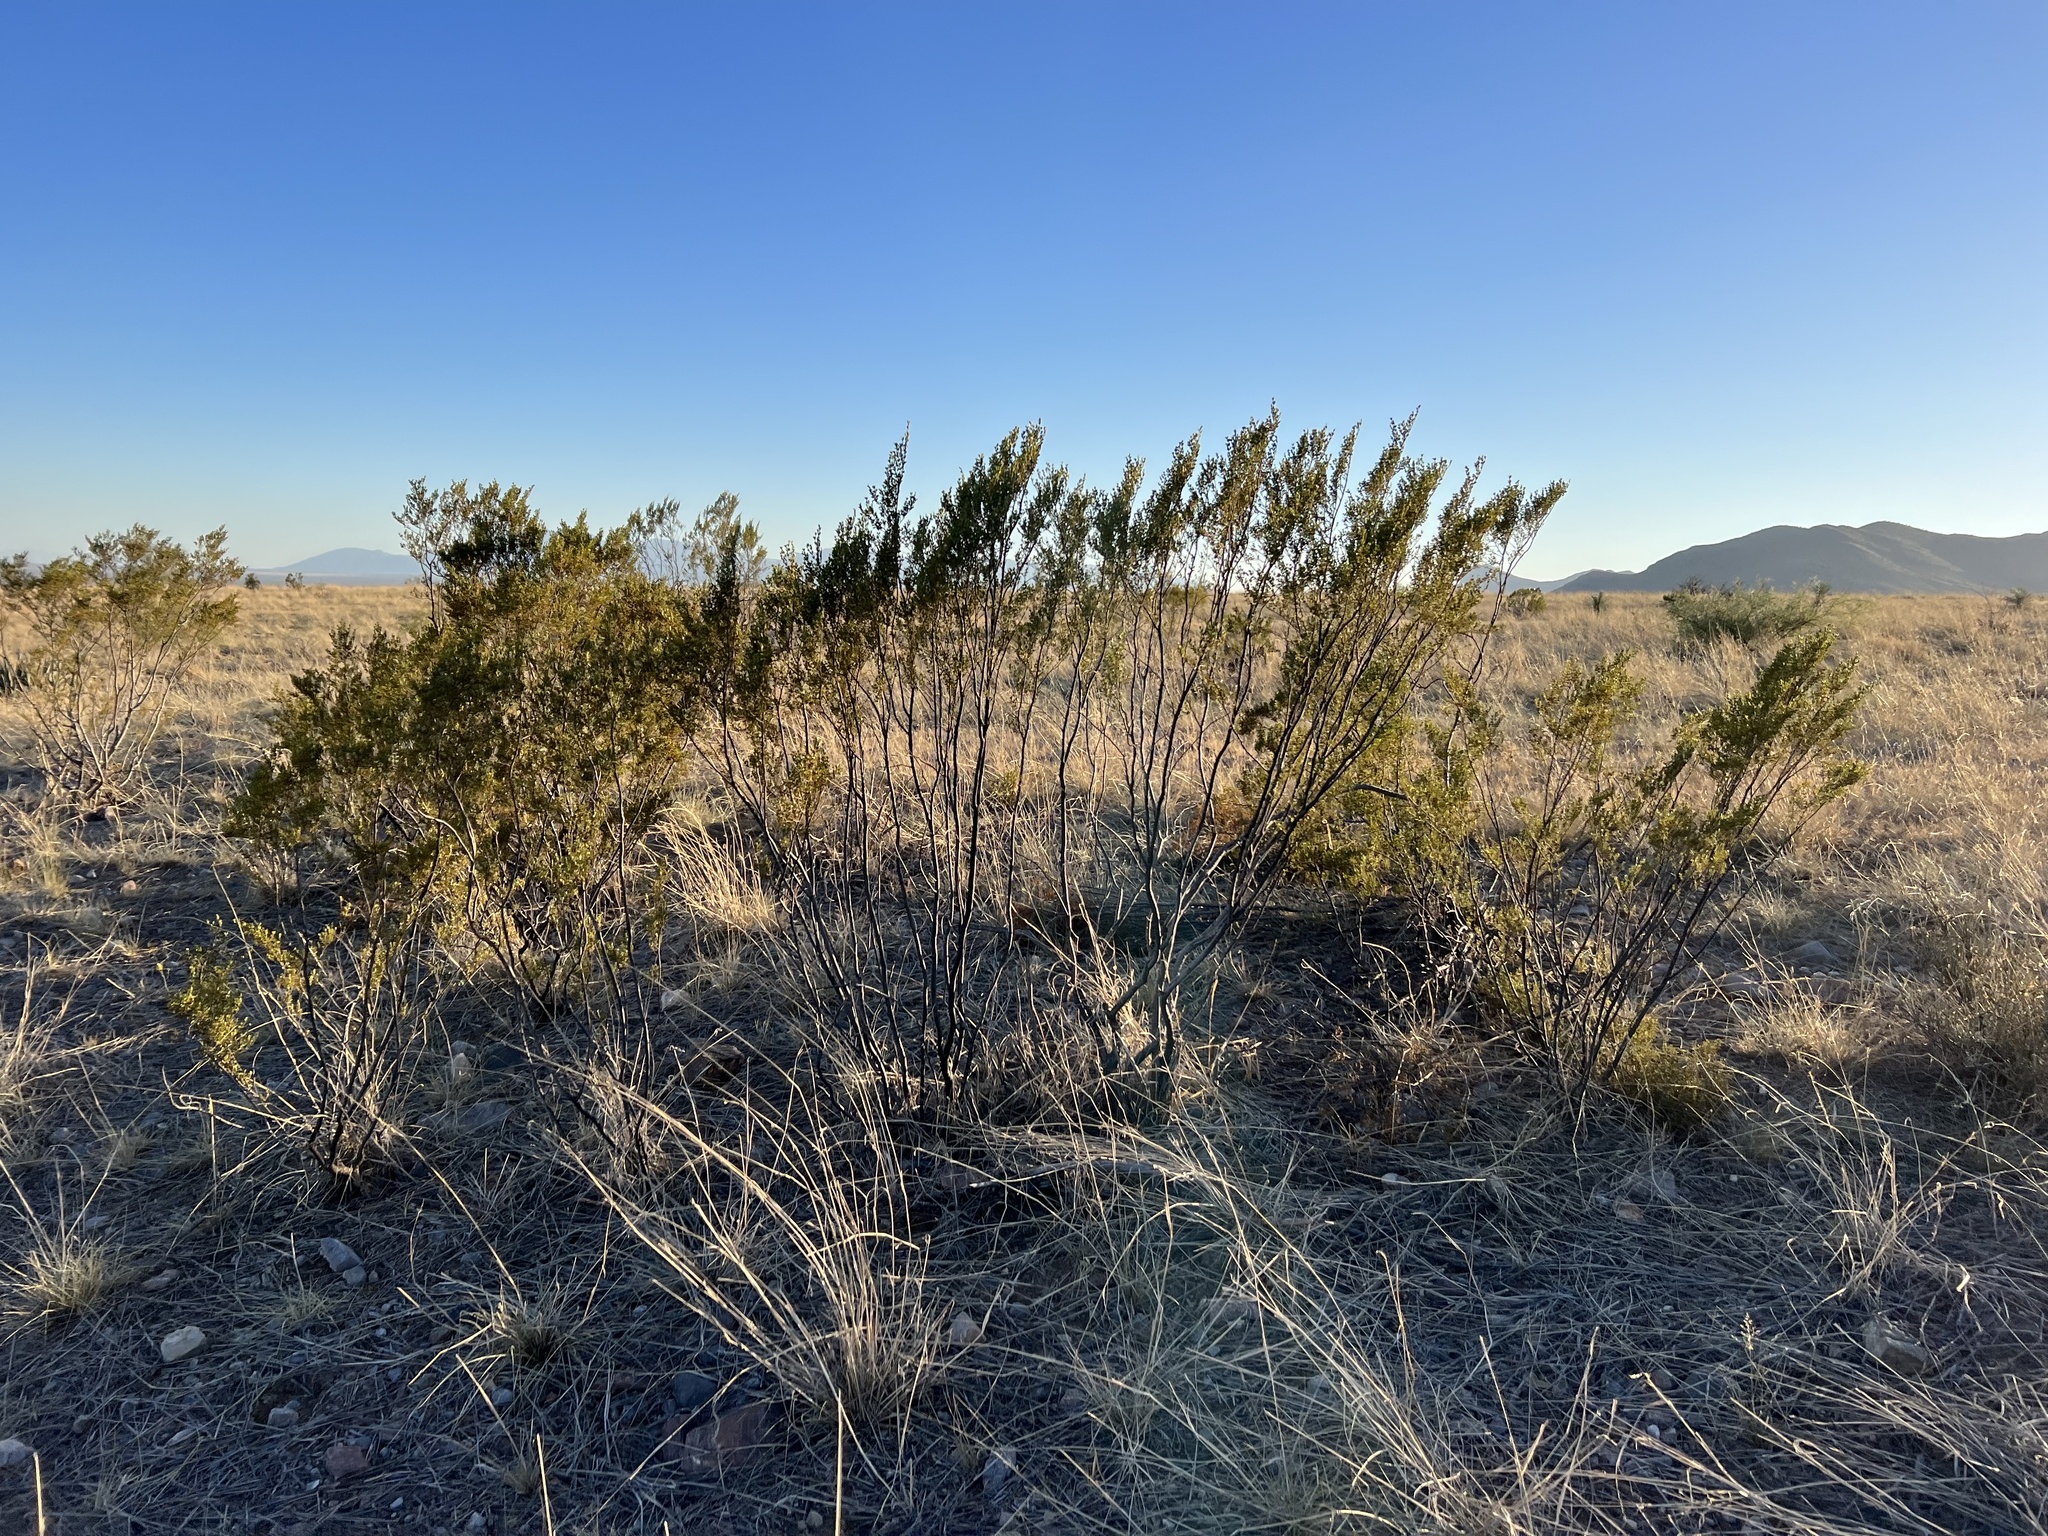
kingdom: Plantae
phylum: Tracheophyta
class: Magnoliopsida
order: Zygophyllales
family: Zygophyllaceae
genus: Larrea
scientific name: Larrea tridentata
